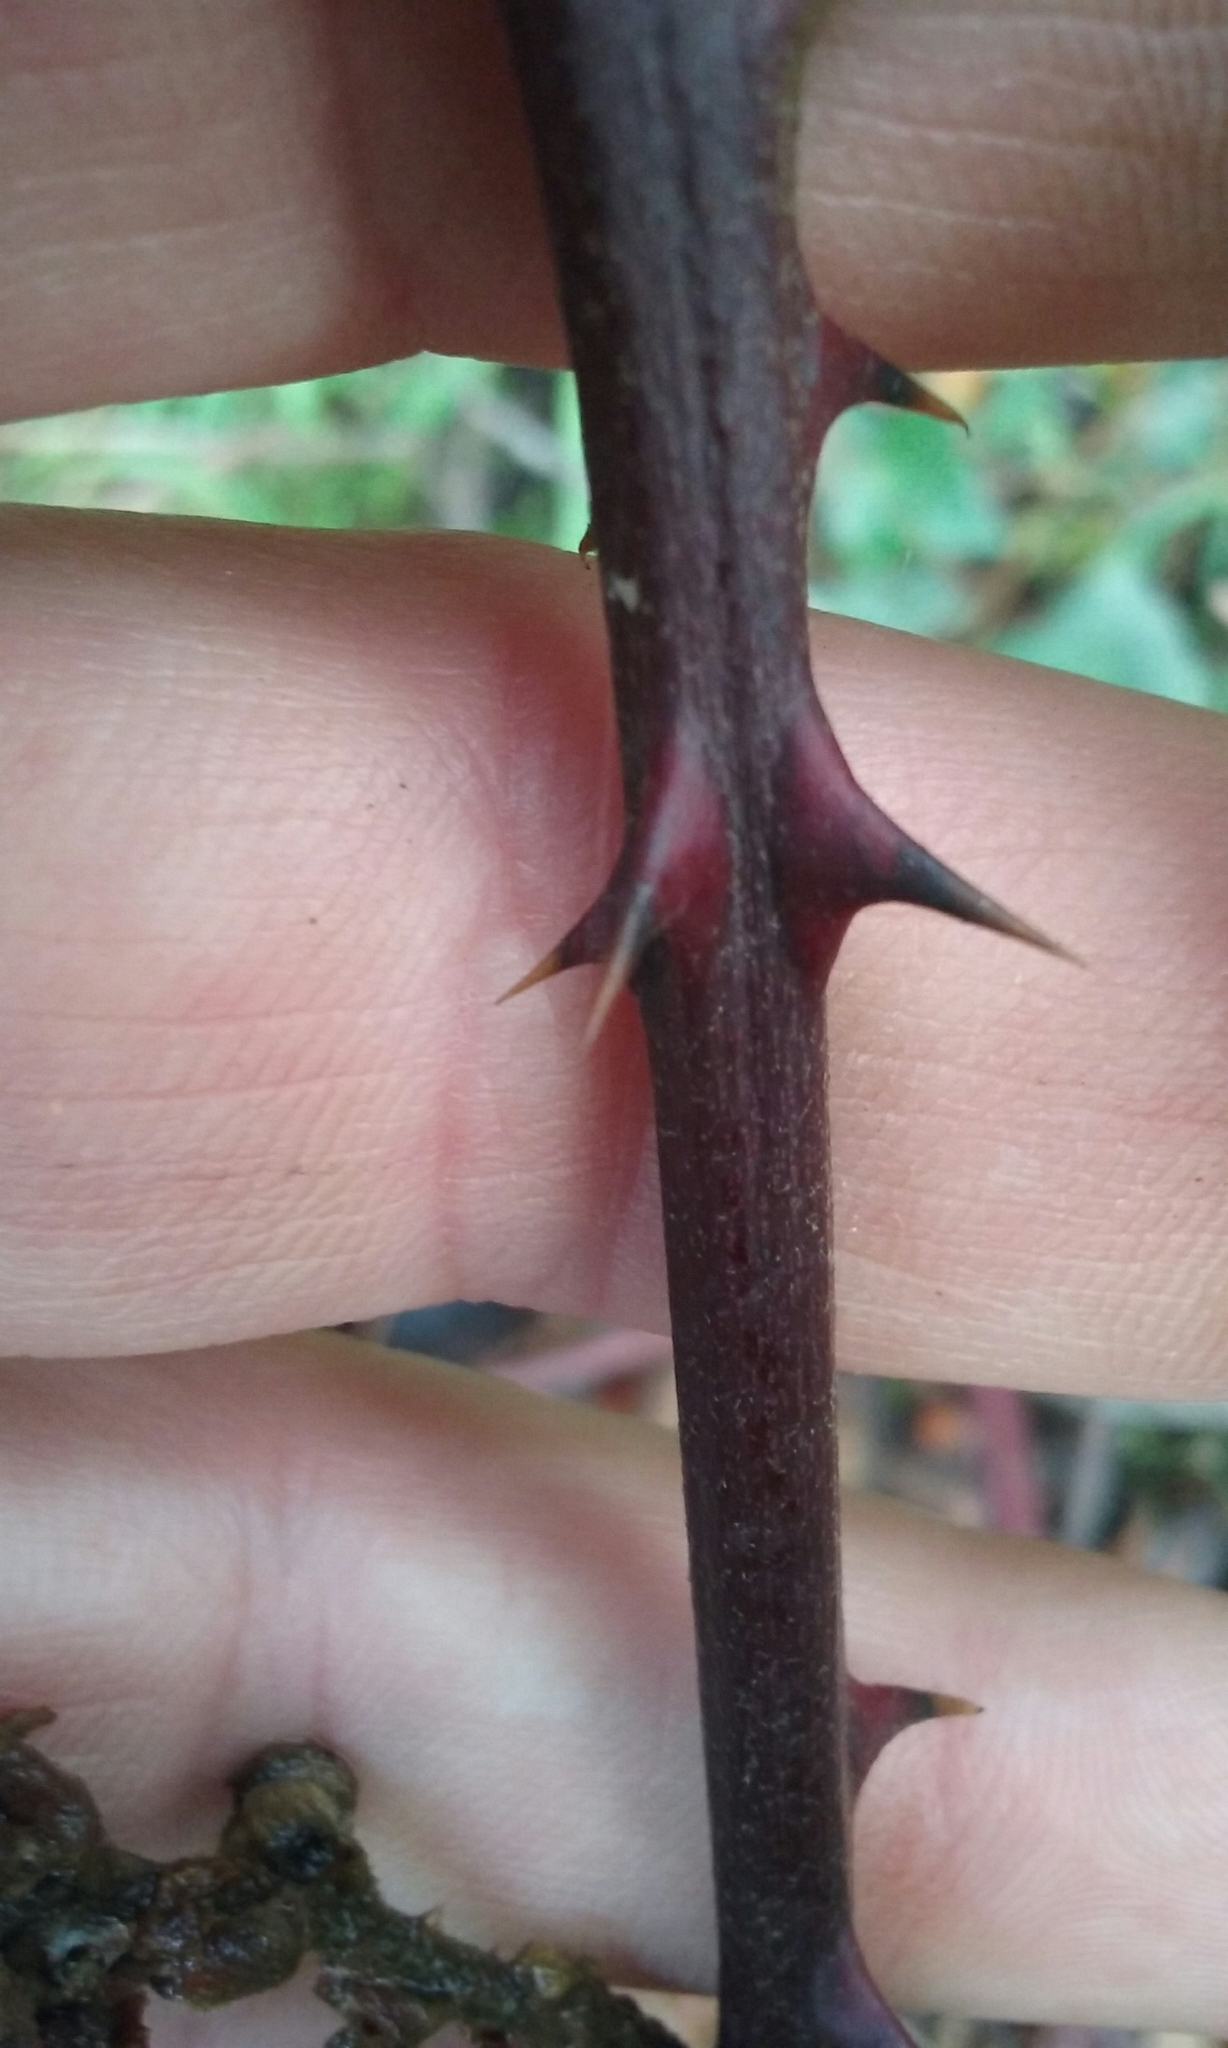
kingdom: Plantae
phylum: Tracheophyta
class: Magnoliopsida
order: Rosales
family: Rosaceae
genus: Rubus
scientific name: Rubus armeniacus
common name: Himalayan blackberry
